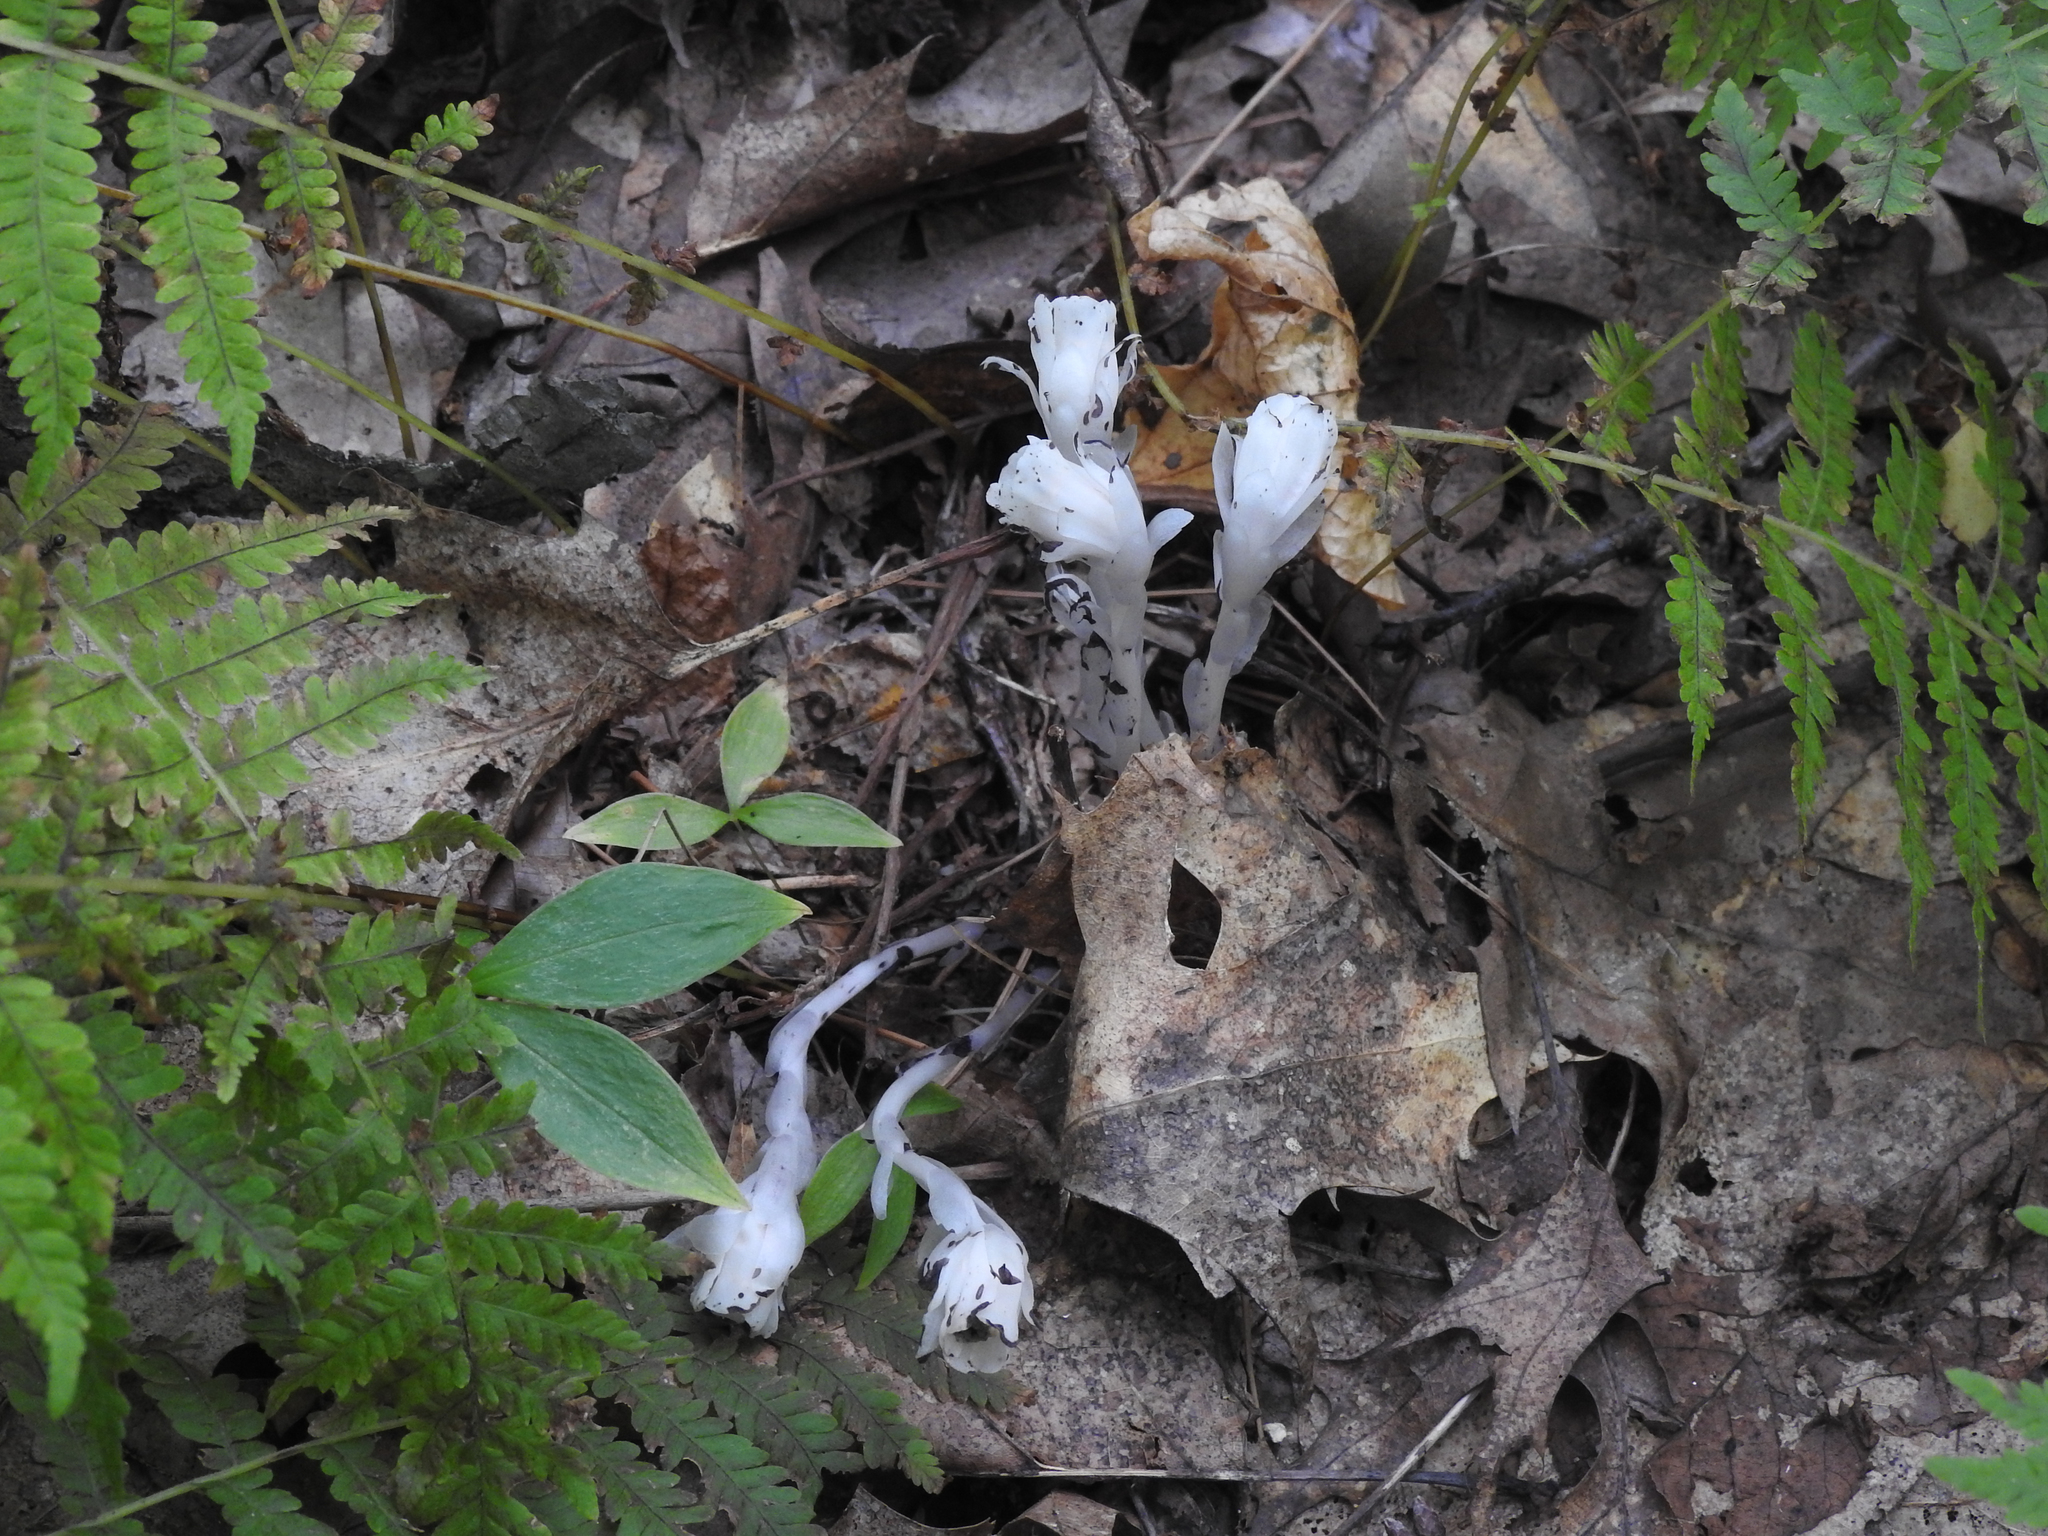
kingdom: Plantae
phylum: Tracheophyta
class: Magnoliopsida
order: Ericales
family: Ericaceae
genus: Monotropa
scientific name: Monotropa uniflora
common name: Convulsion root
